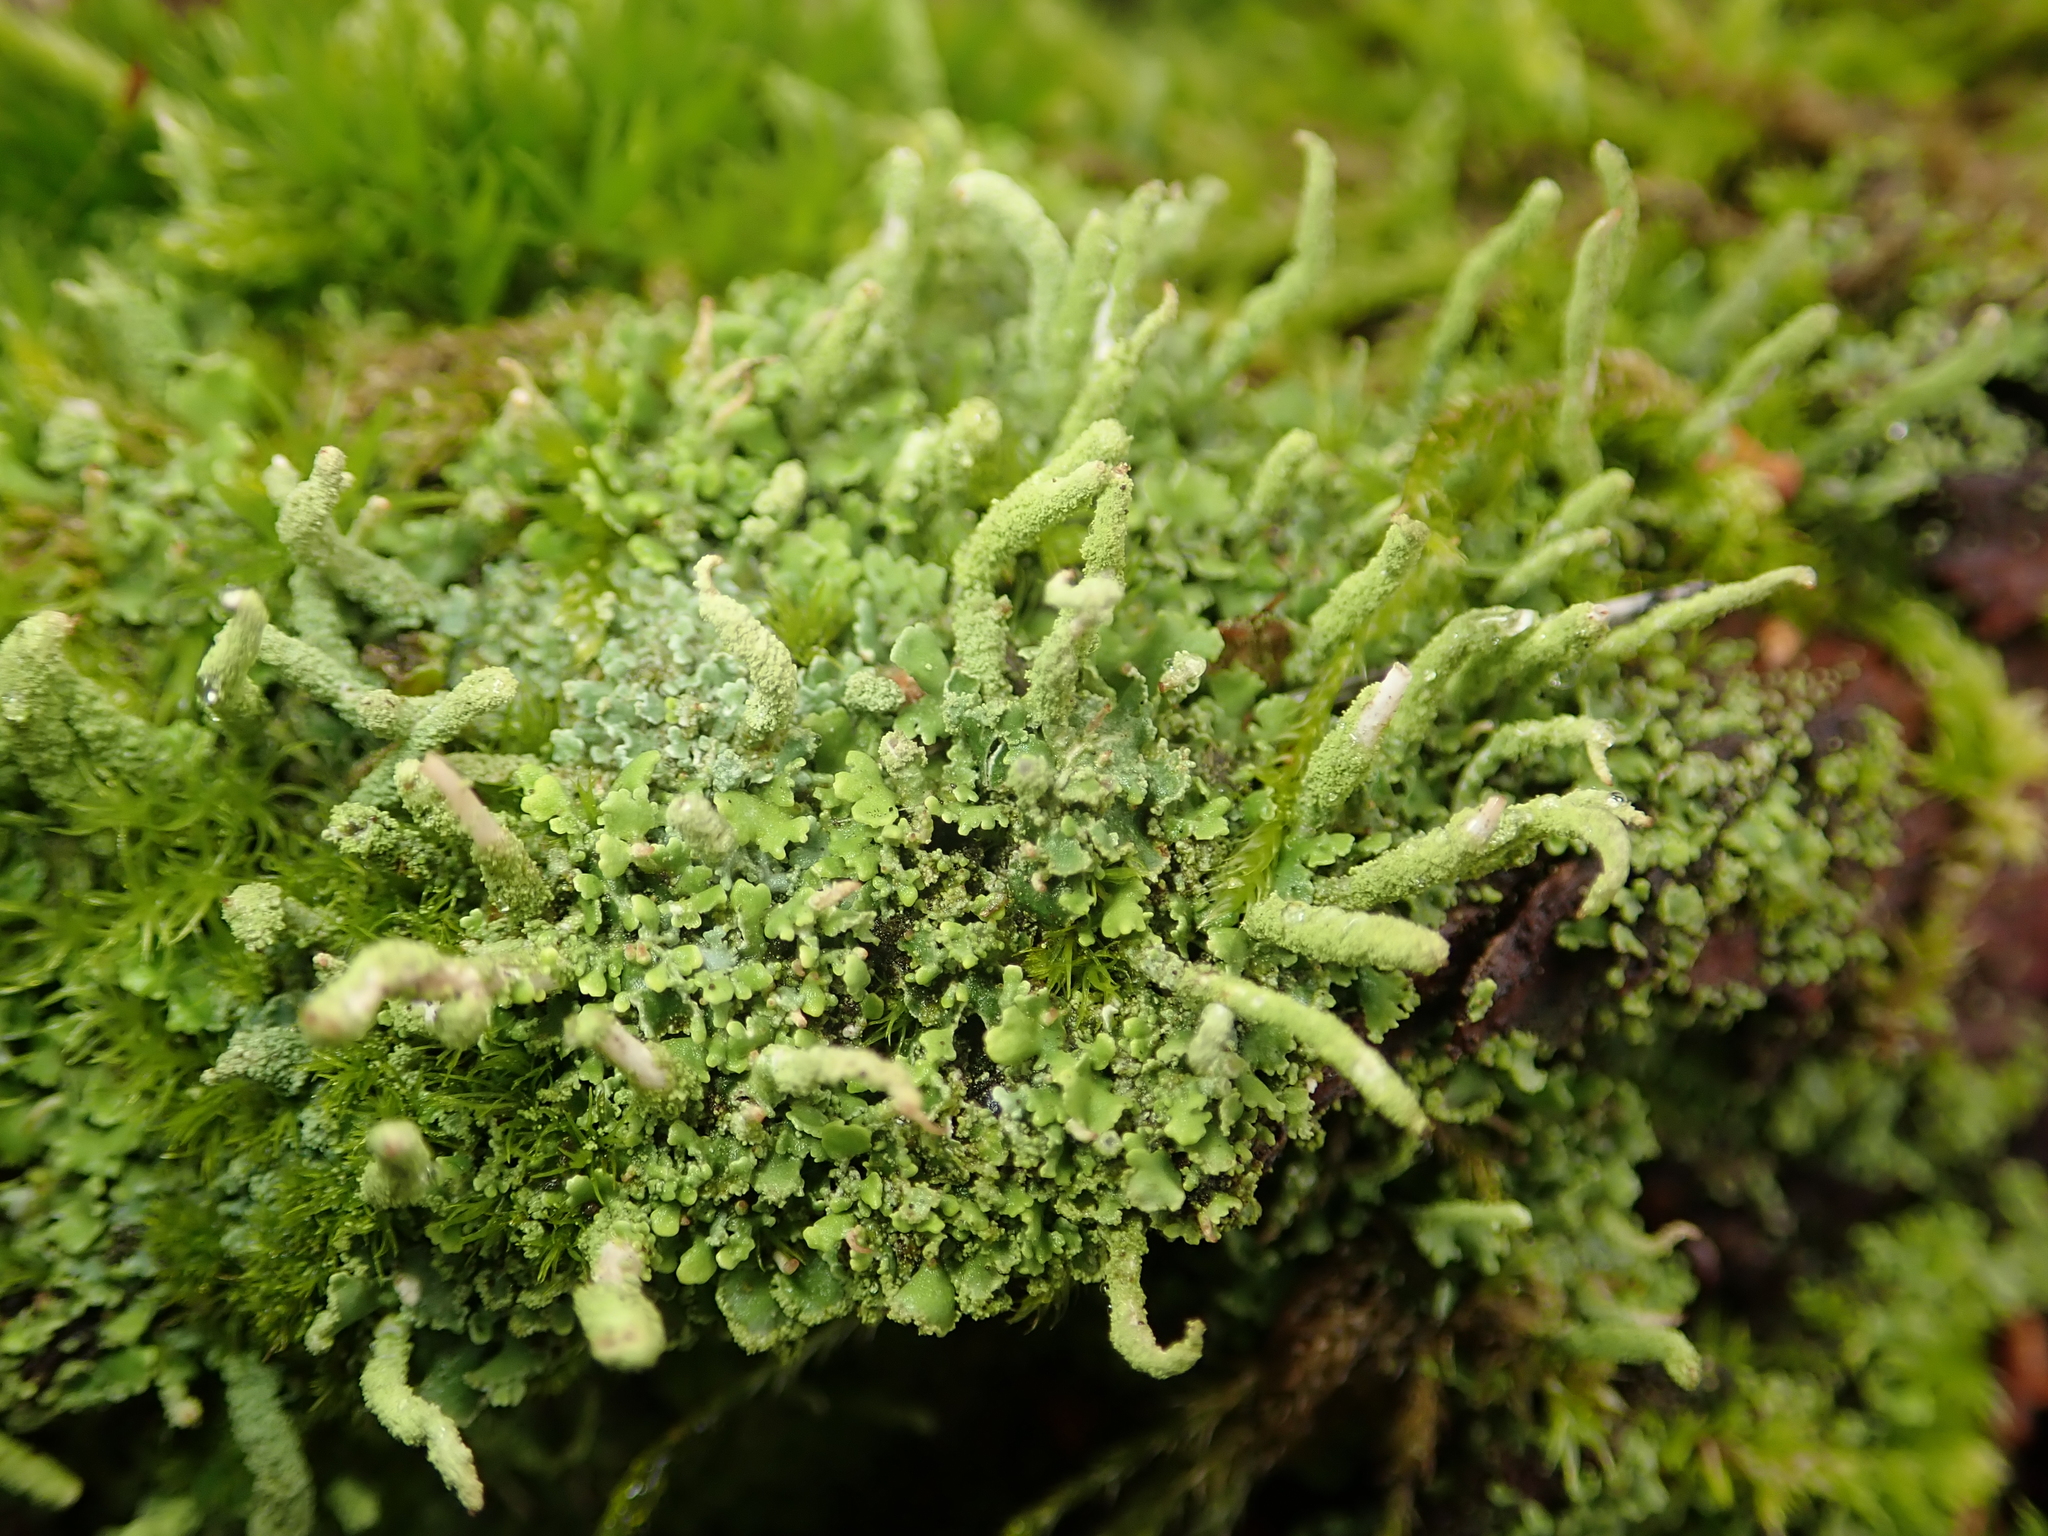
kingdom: Fungi
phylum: Ascomycota
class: Lecanoromycetes
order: Lecanorales
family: Cladoniaceae
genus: Cladonia
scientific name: Cladonia coniocraea
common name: Common powderhorn
